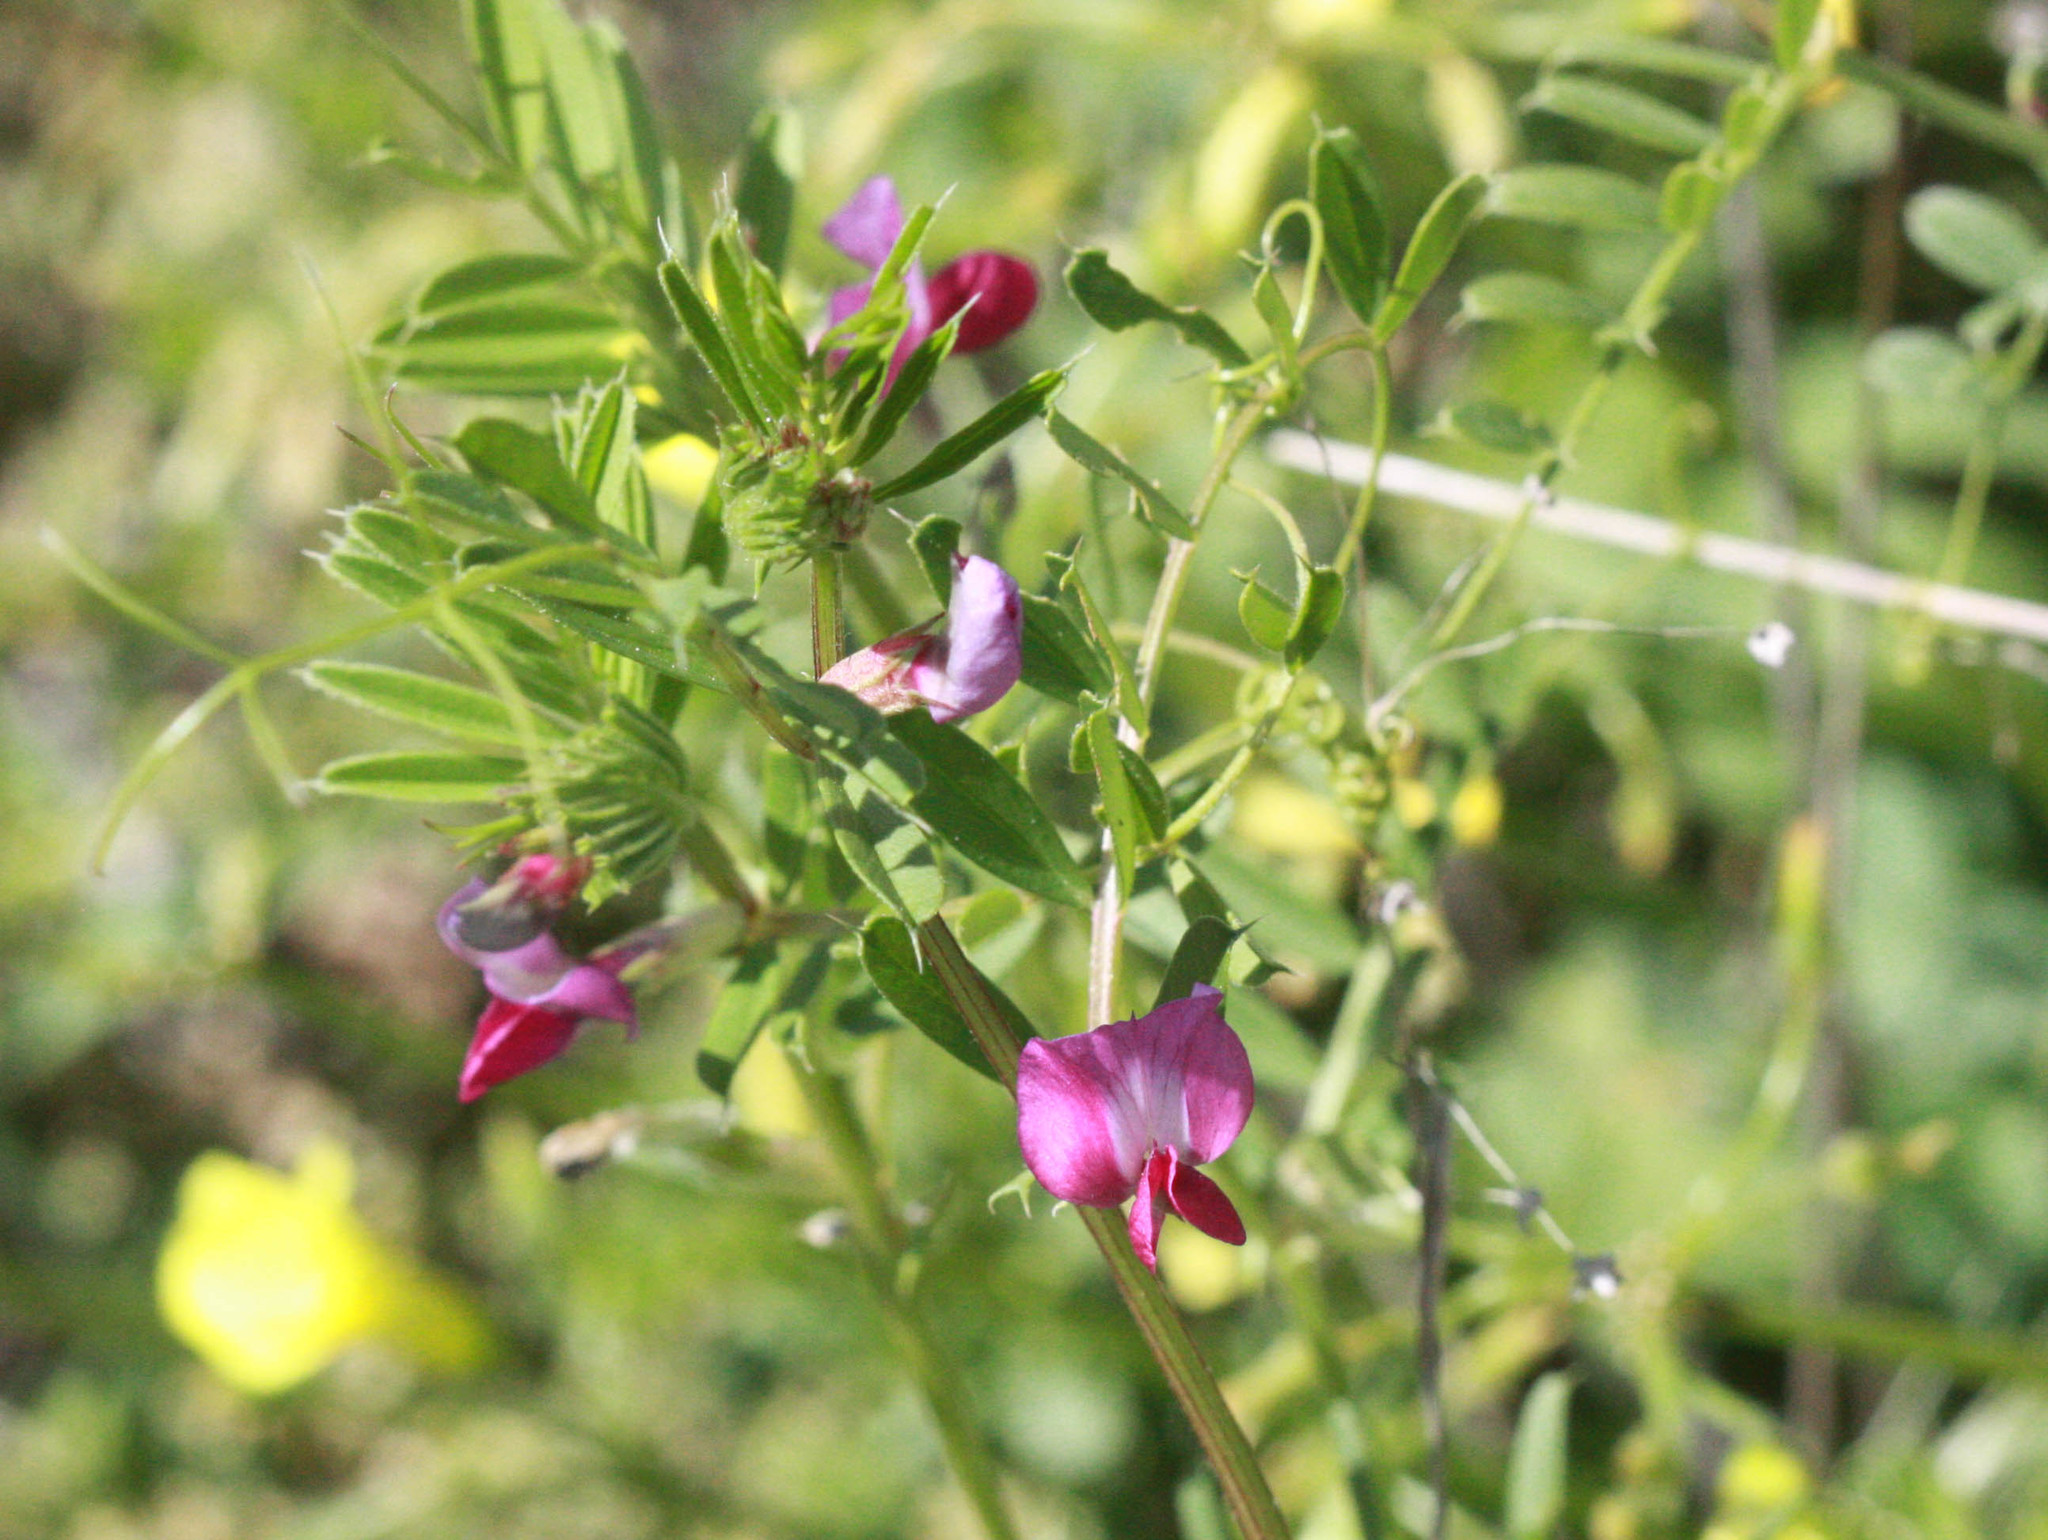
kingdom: Plantae
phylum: Tracheophyta
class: Magnoliopsida
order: Fabales
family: Fabaceae
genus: Vicia
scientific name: Vicia sativa
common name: Garden vetch
